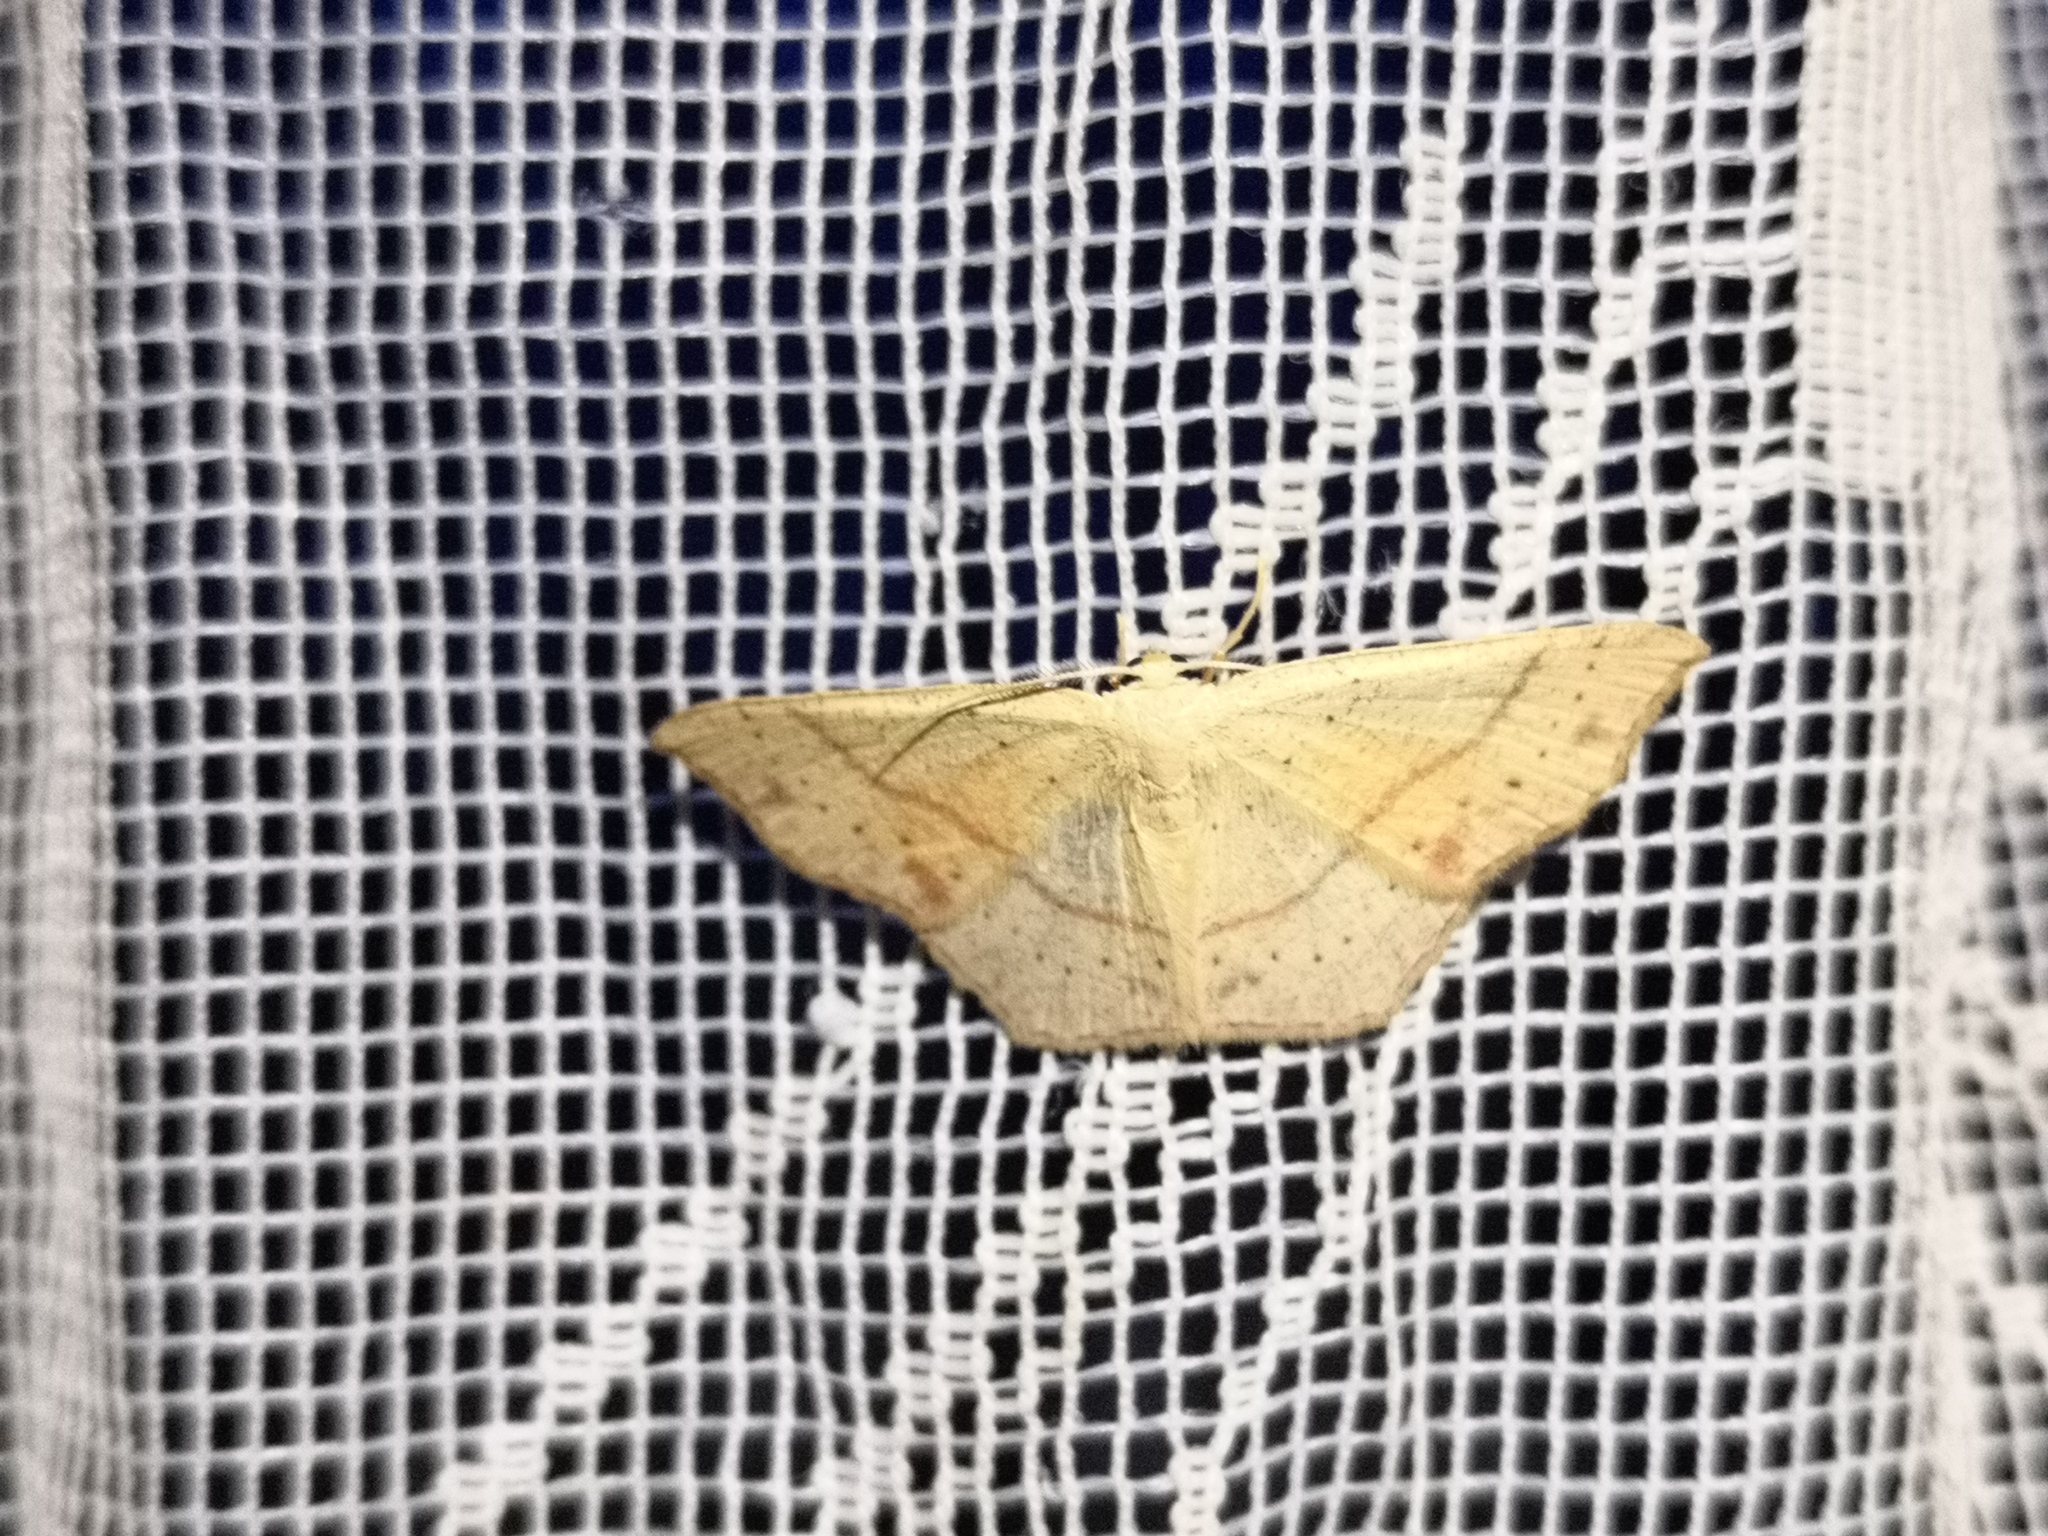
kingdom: Animalia
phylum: Arthropoda
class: Insecta
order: Lepidoptera
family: Geometridae
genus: Cyclophora
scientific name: Cyclophora punctaria
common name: Maiden's blush
